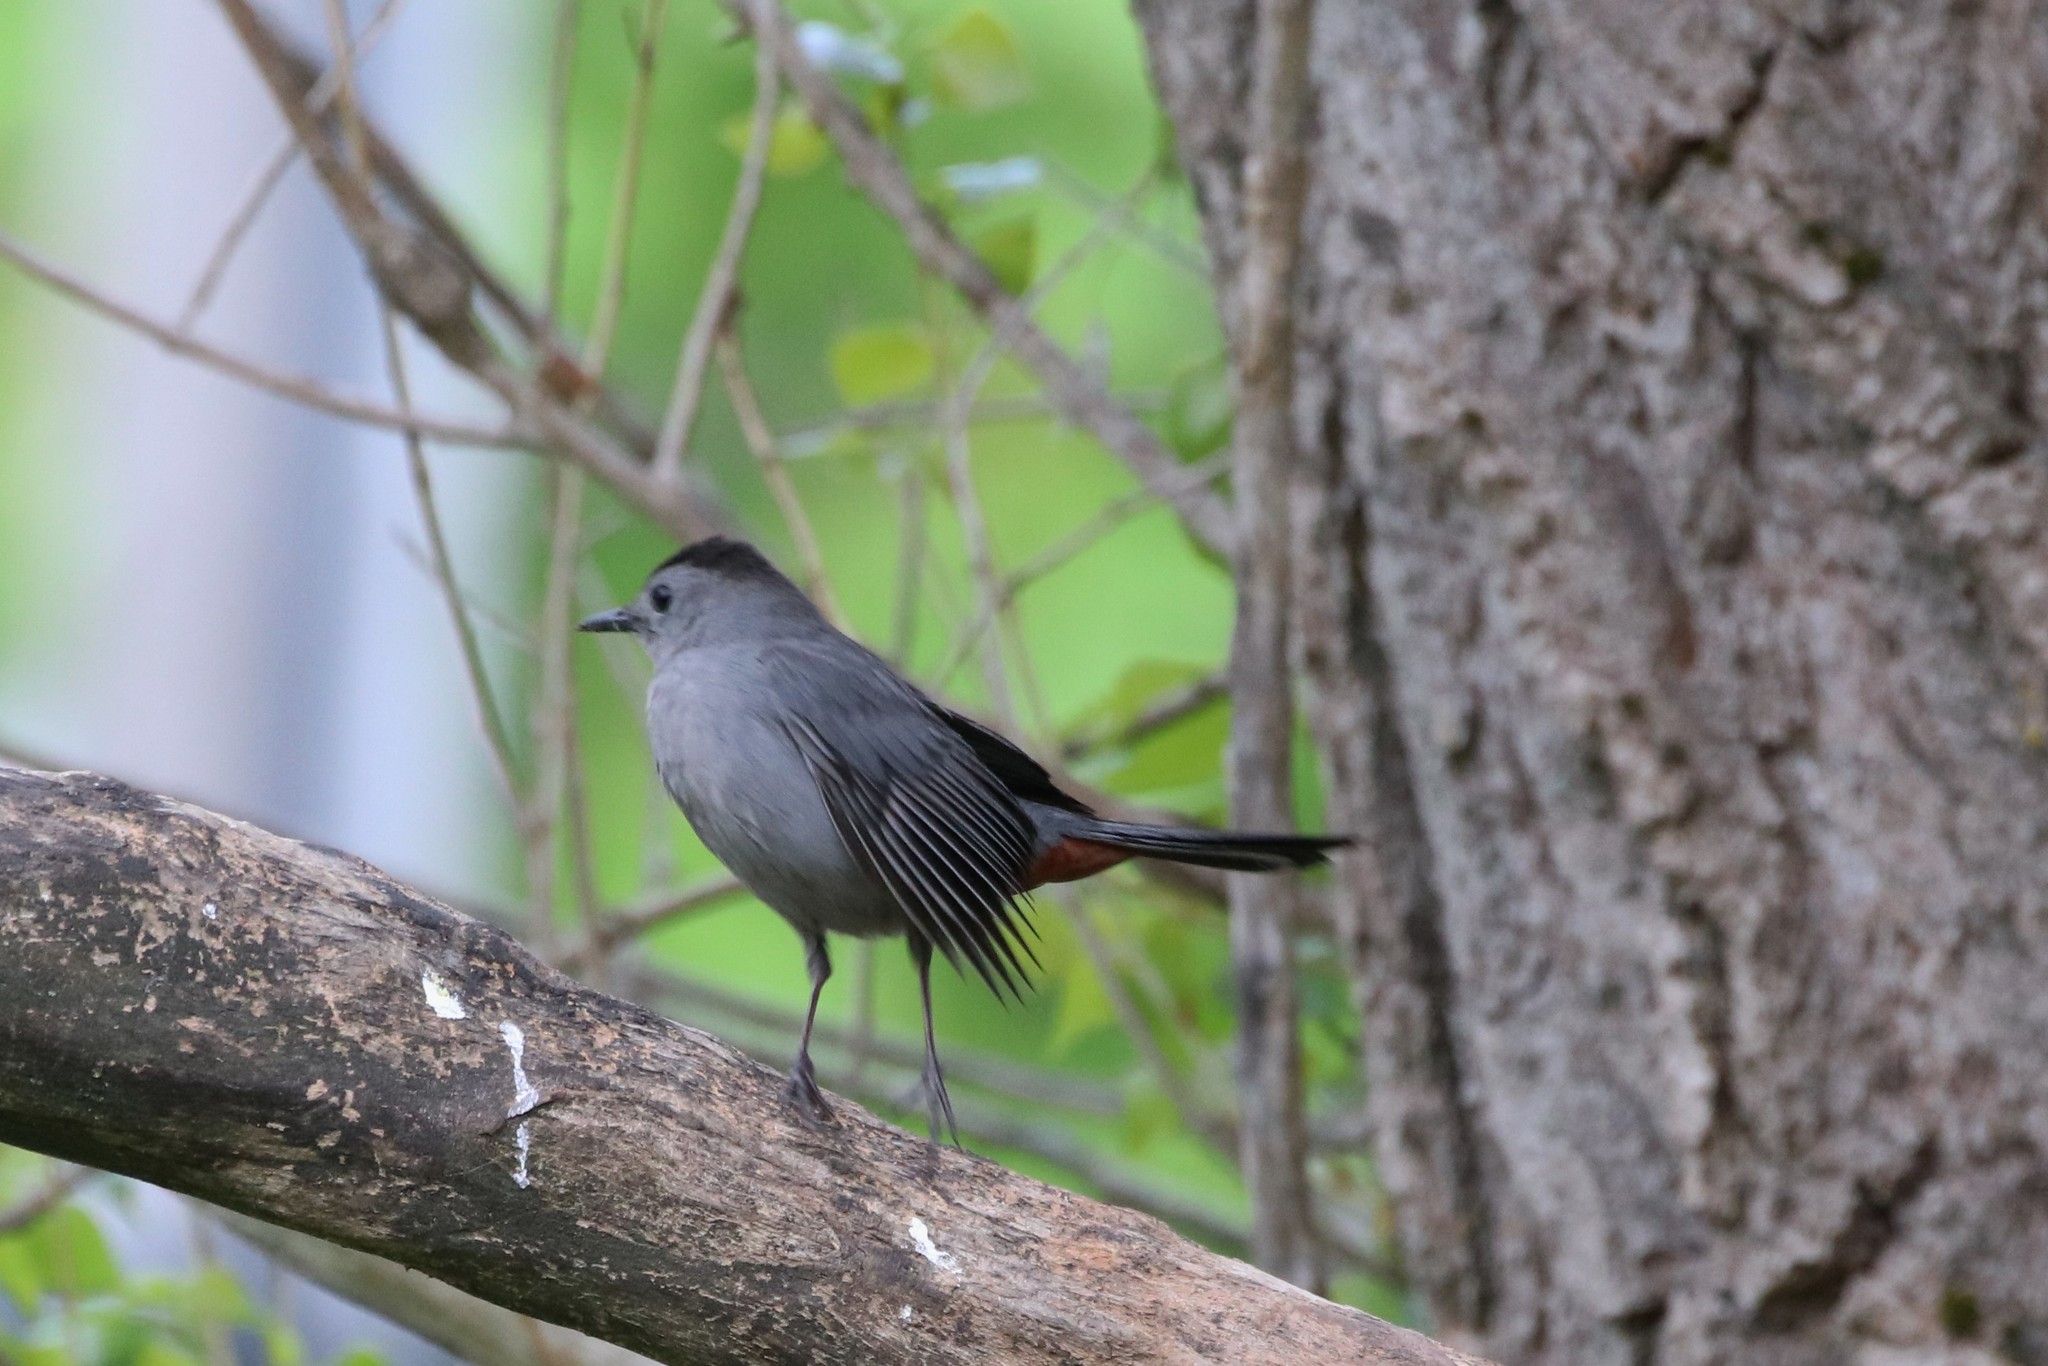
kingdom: Animalia
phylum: Chordata
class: Aves
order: Passeriformes
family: Mimidae
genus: Dumetella
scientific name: Dumetella carolinensis
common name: Gray catbird
